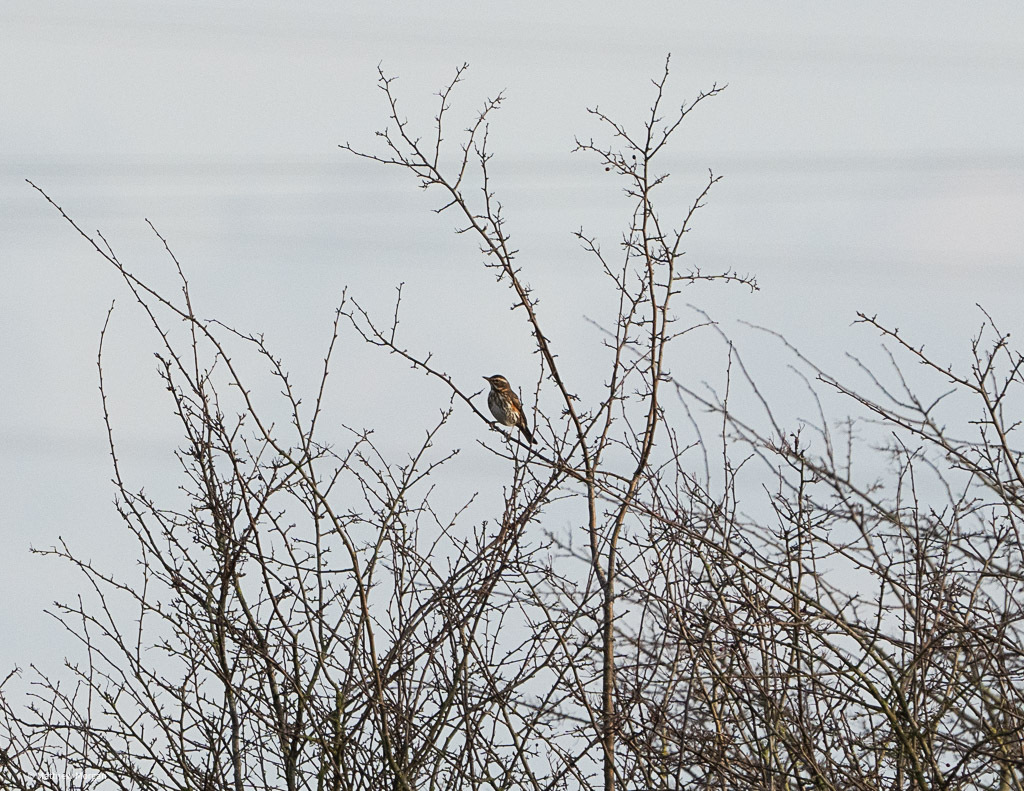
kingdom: Animalia
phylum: Chordata
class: Aves
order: Passeriformes
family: Turdidae
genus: Turdus
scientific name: Turdus iliacus
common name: Redwing
